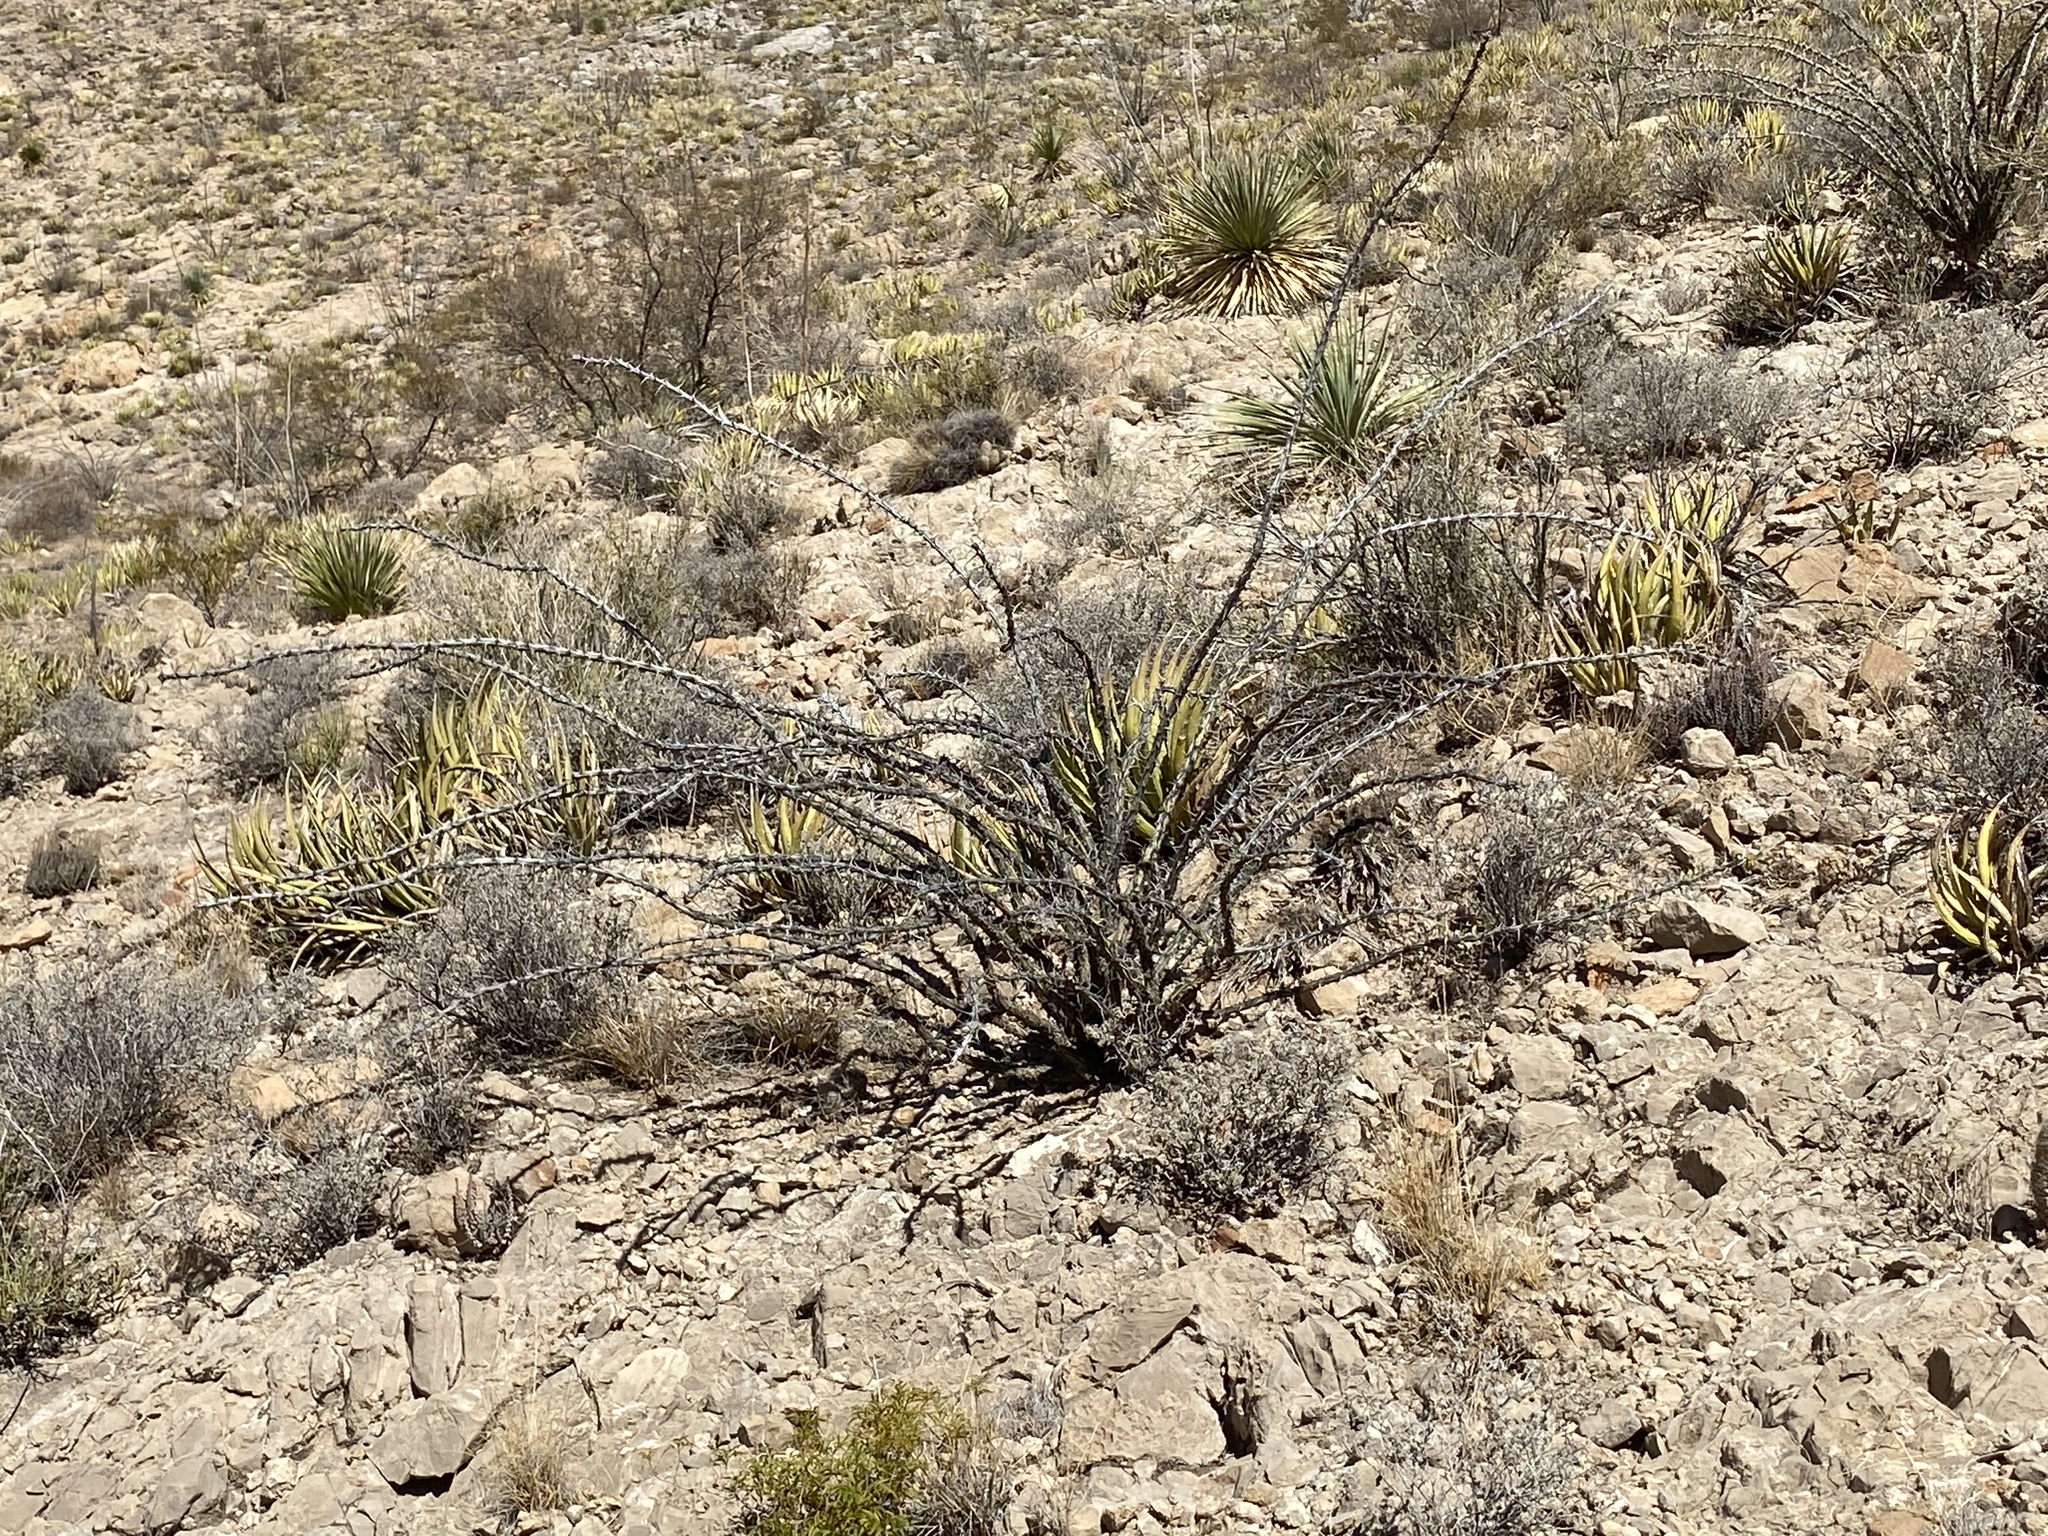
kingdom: Plantae
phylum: Tracheophyta
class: Magnoliopsida
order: Ericales
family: Fouquieriaceae
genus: Fouquieria
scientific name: Fouquieria splendens
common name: Vine-cactus
